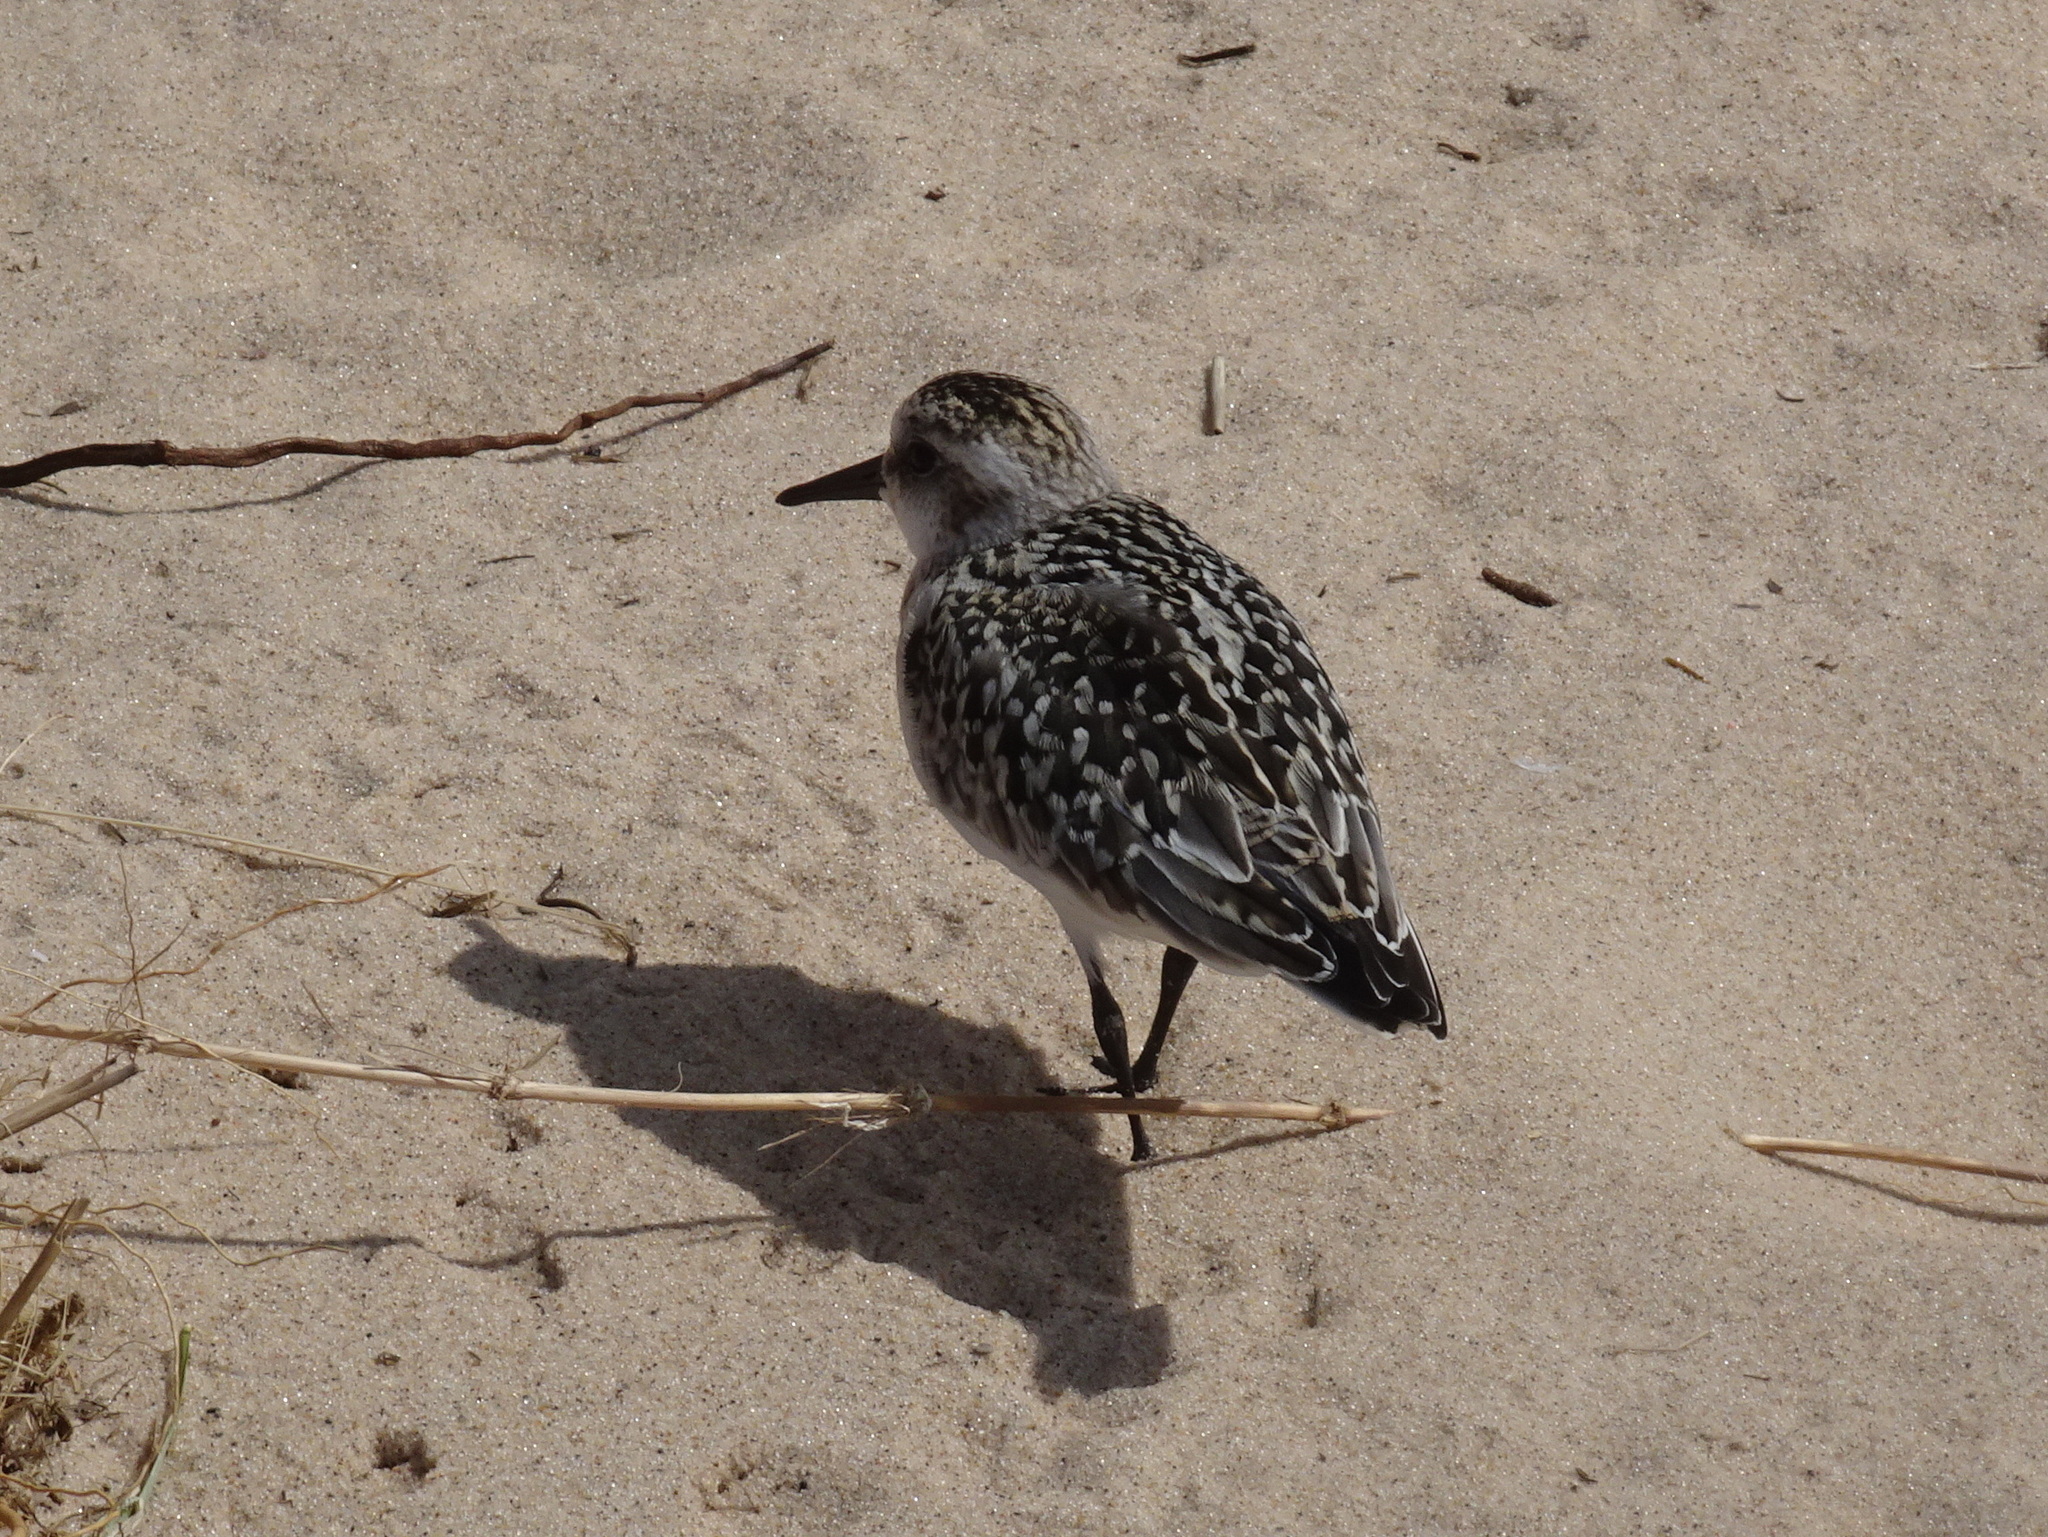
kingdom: Animalia
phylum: Chordata
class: Aves
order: Charadriiformes
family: Scolopacidae
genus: Calidris
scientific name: Calidris alba
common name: Sanderling
